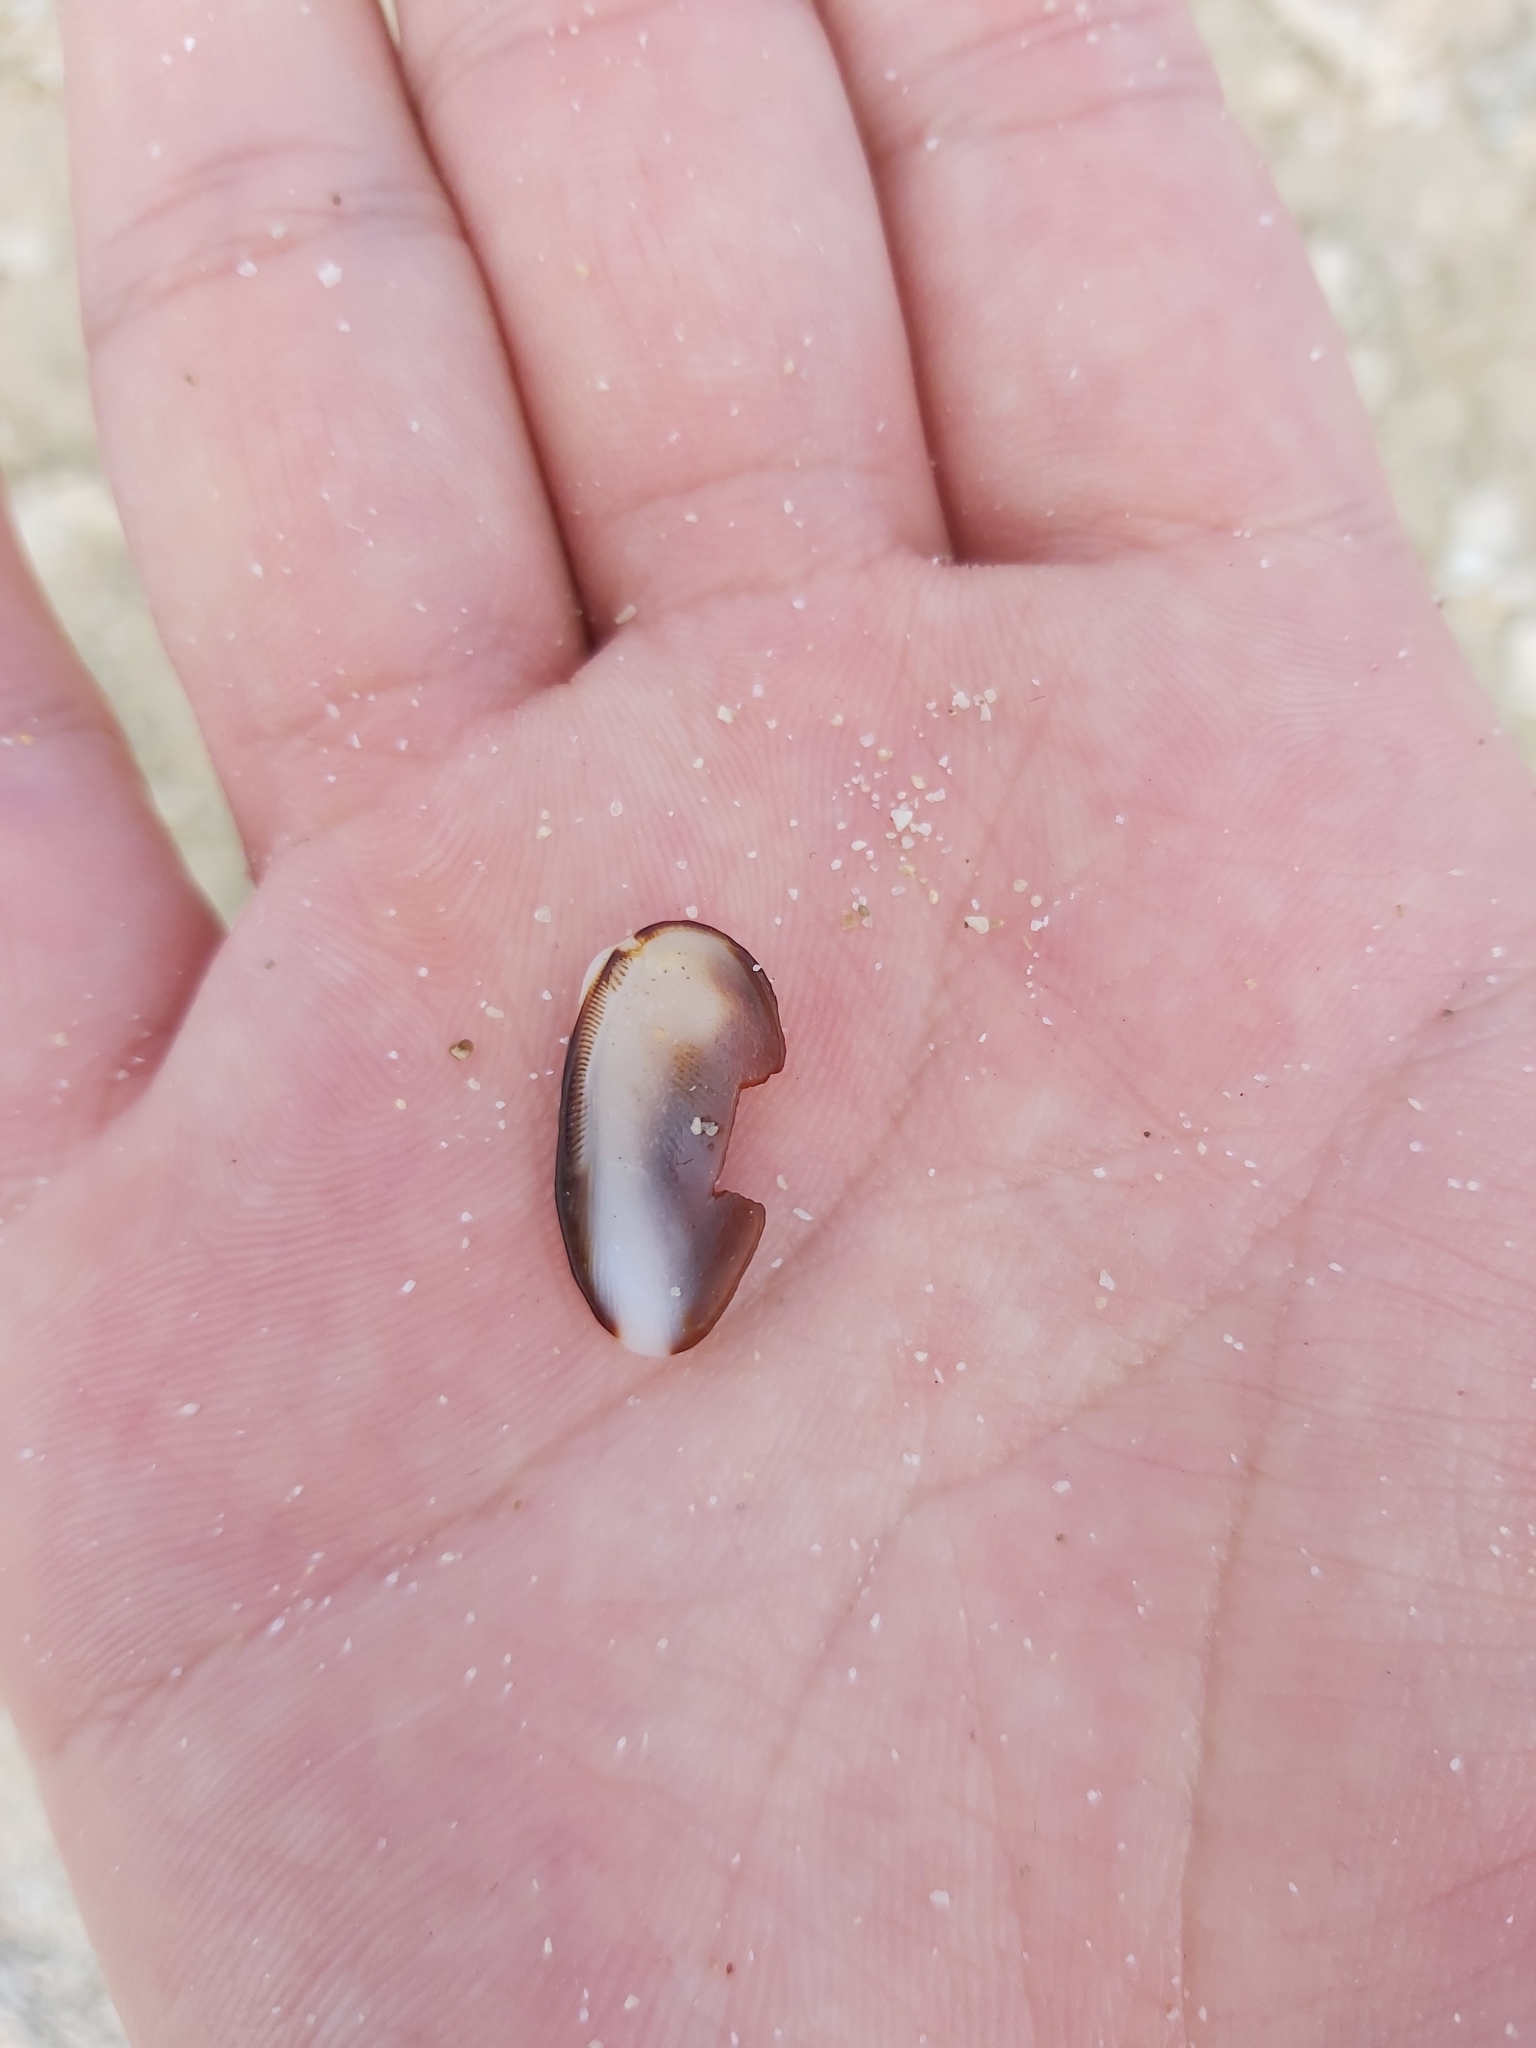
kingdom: Animalia
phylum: Mollusca
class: Bivalvia
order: Arcida
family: Arcidae
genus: Barbatia
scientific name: Barbatia amygdalumtostum
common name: Burnt-almond ark
